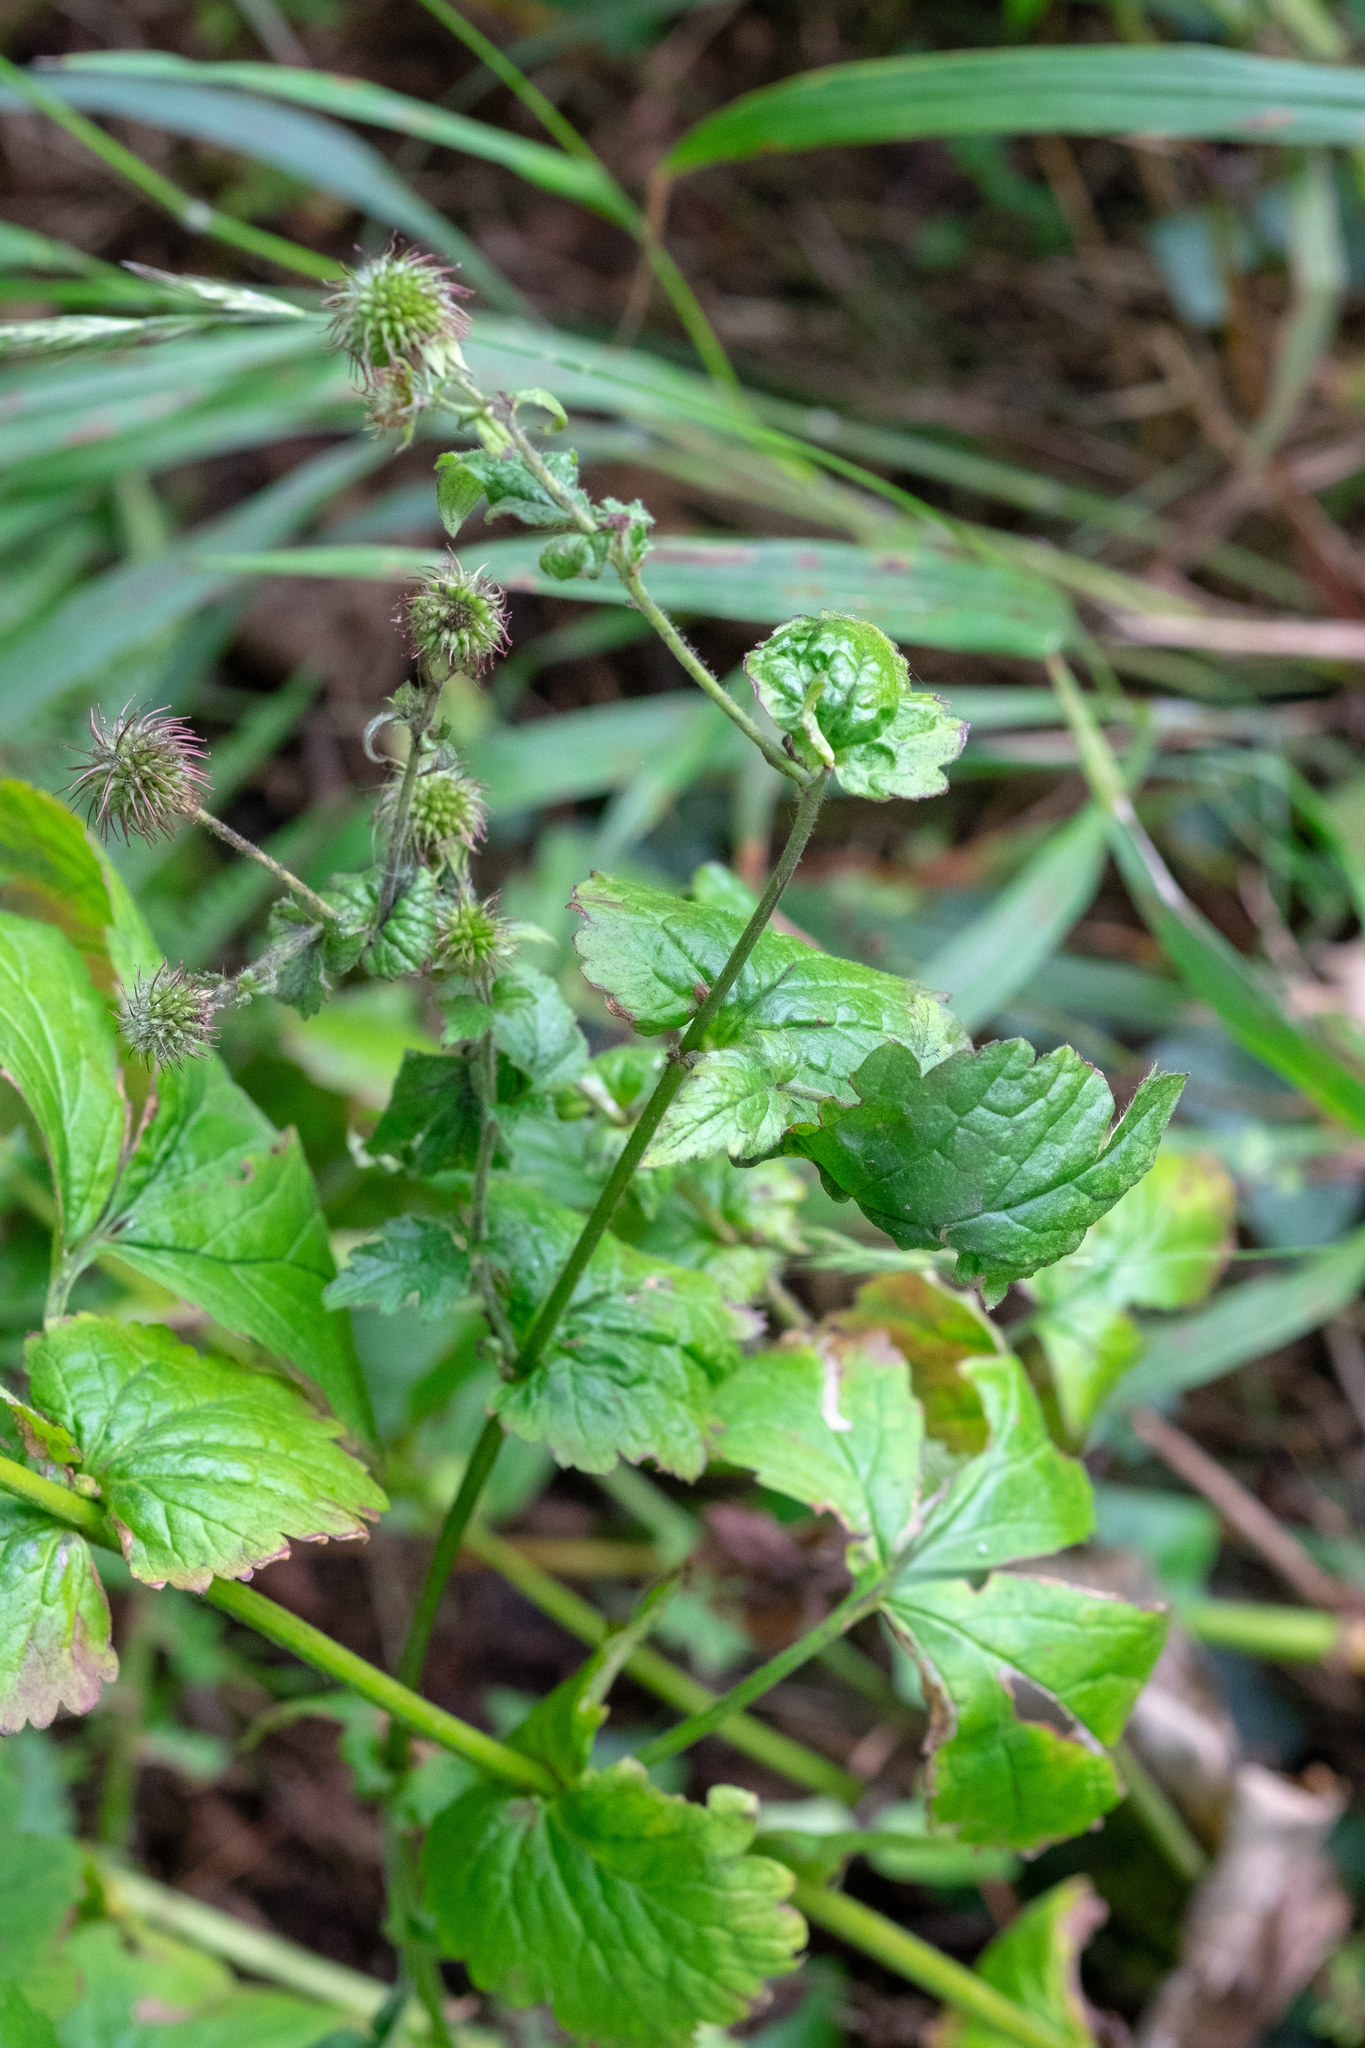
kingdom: Plantae
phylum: Tracheophyta
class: Magnoliopsida
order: Rosales
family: Rosaceae
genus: Geum
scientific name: Geum urbanum
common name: Wood avens
